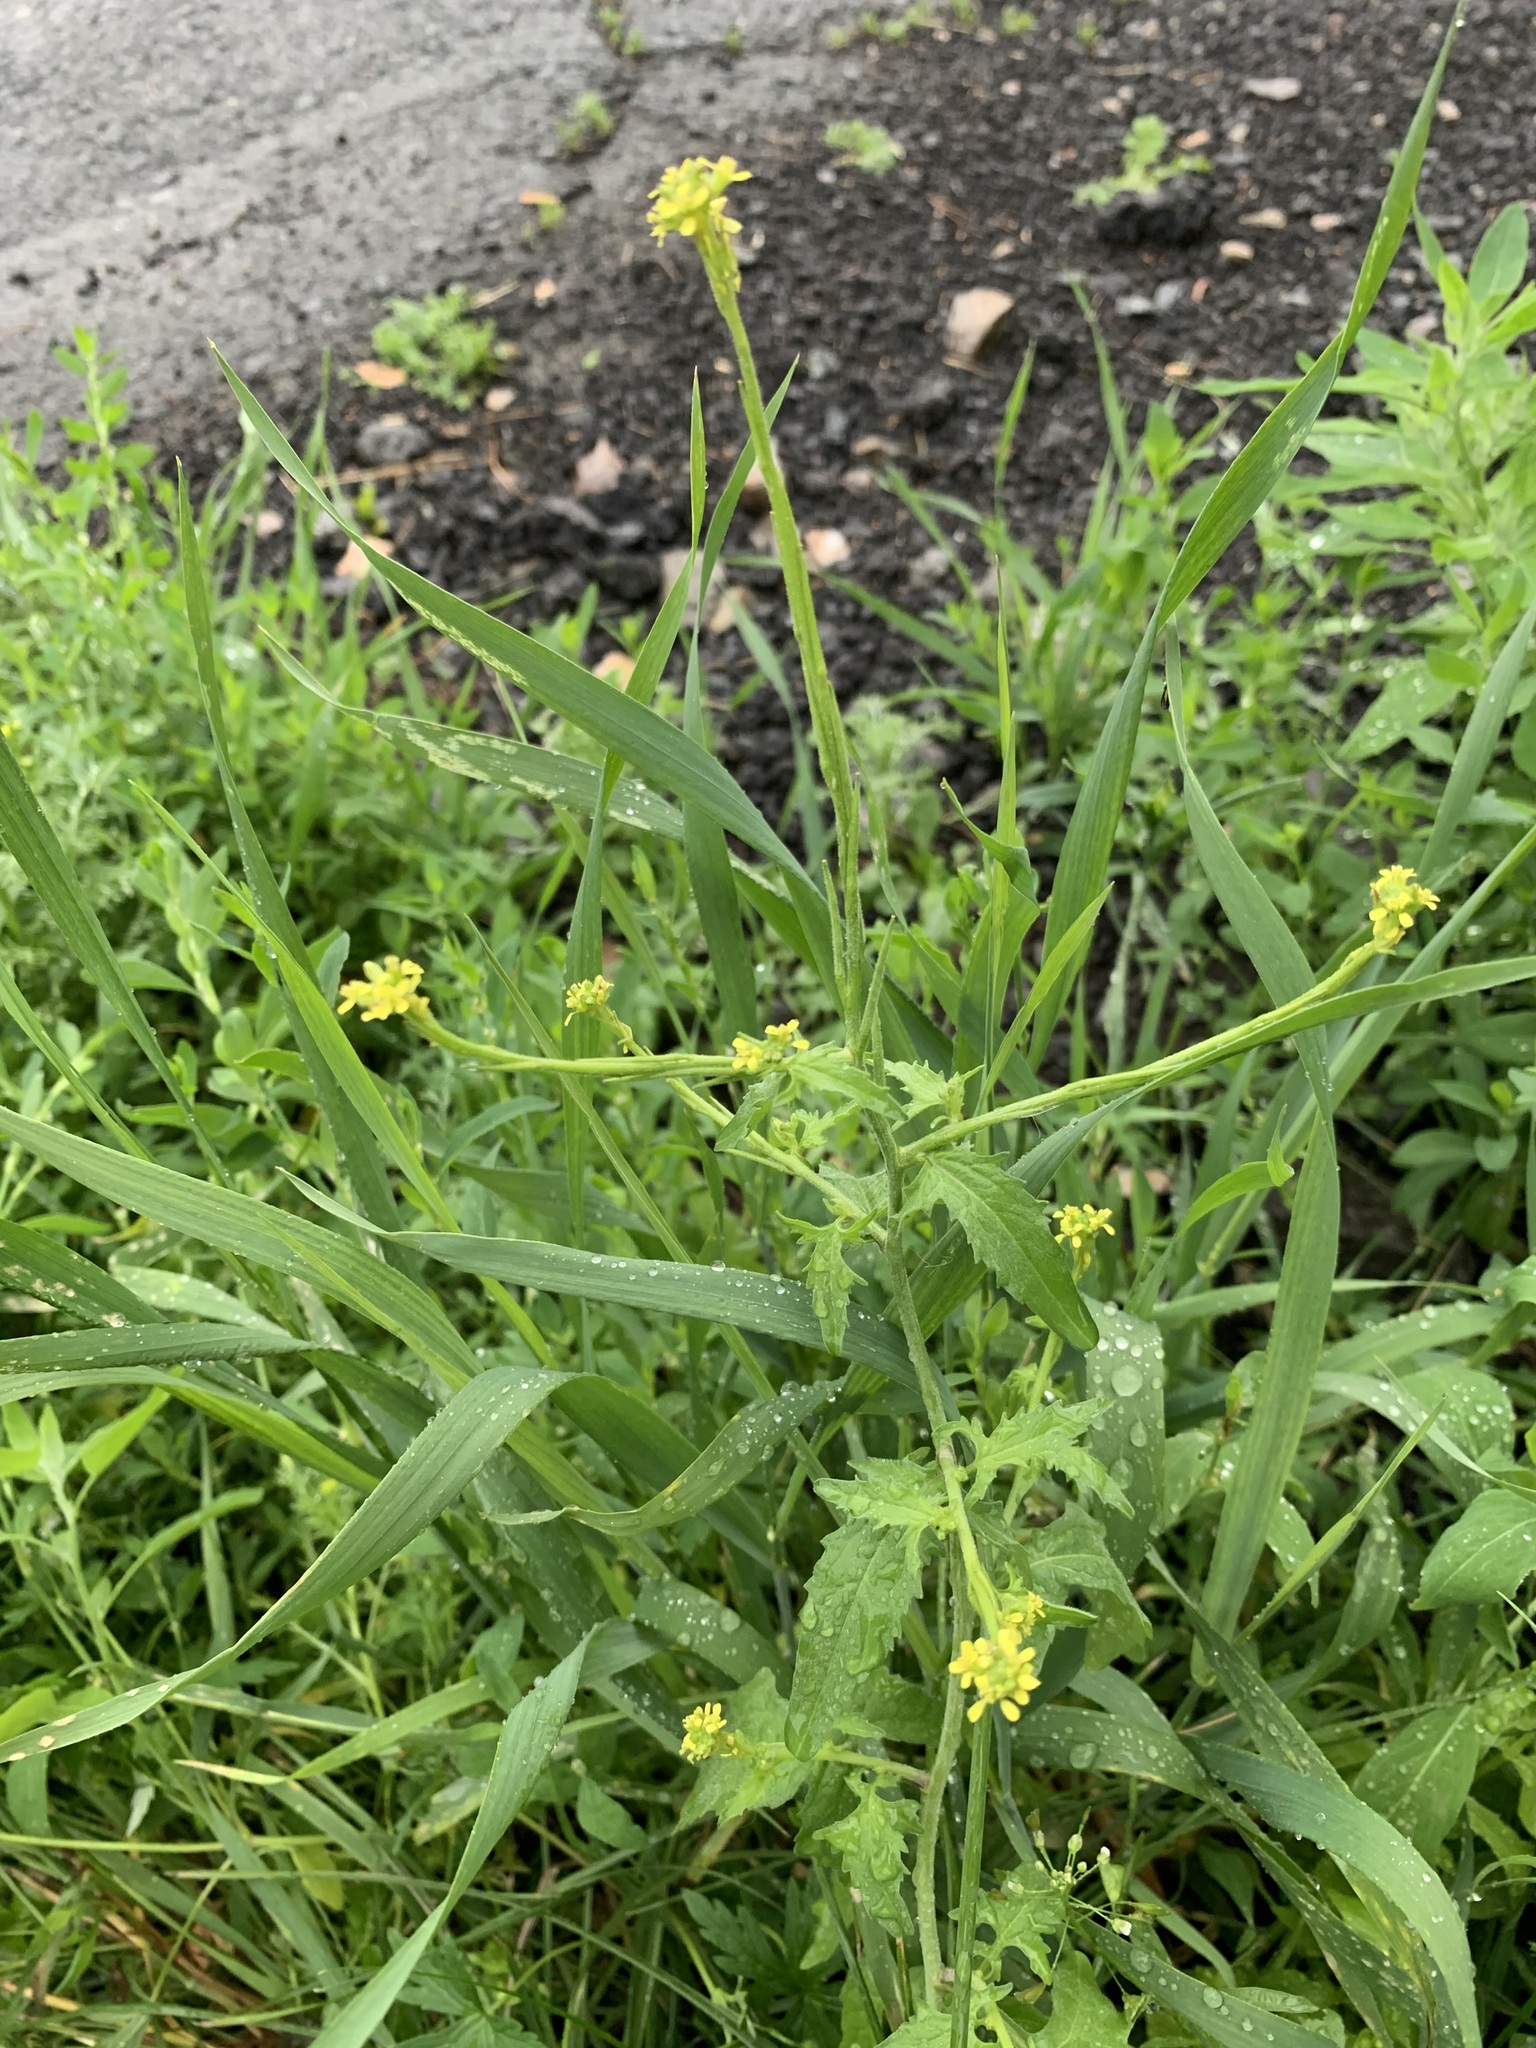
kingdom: Plantae
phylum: Tracheophyta
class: Magnoliopsida
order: Brassicales
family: Brassicaceae
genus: Sisymbrium
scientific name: Sisymbrium officinale
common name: Hedge mustard
